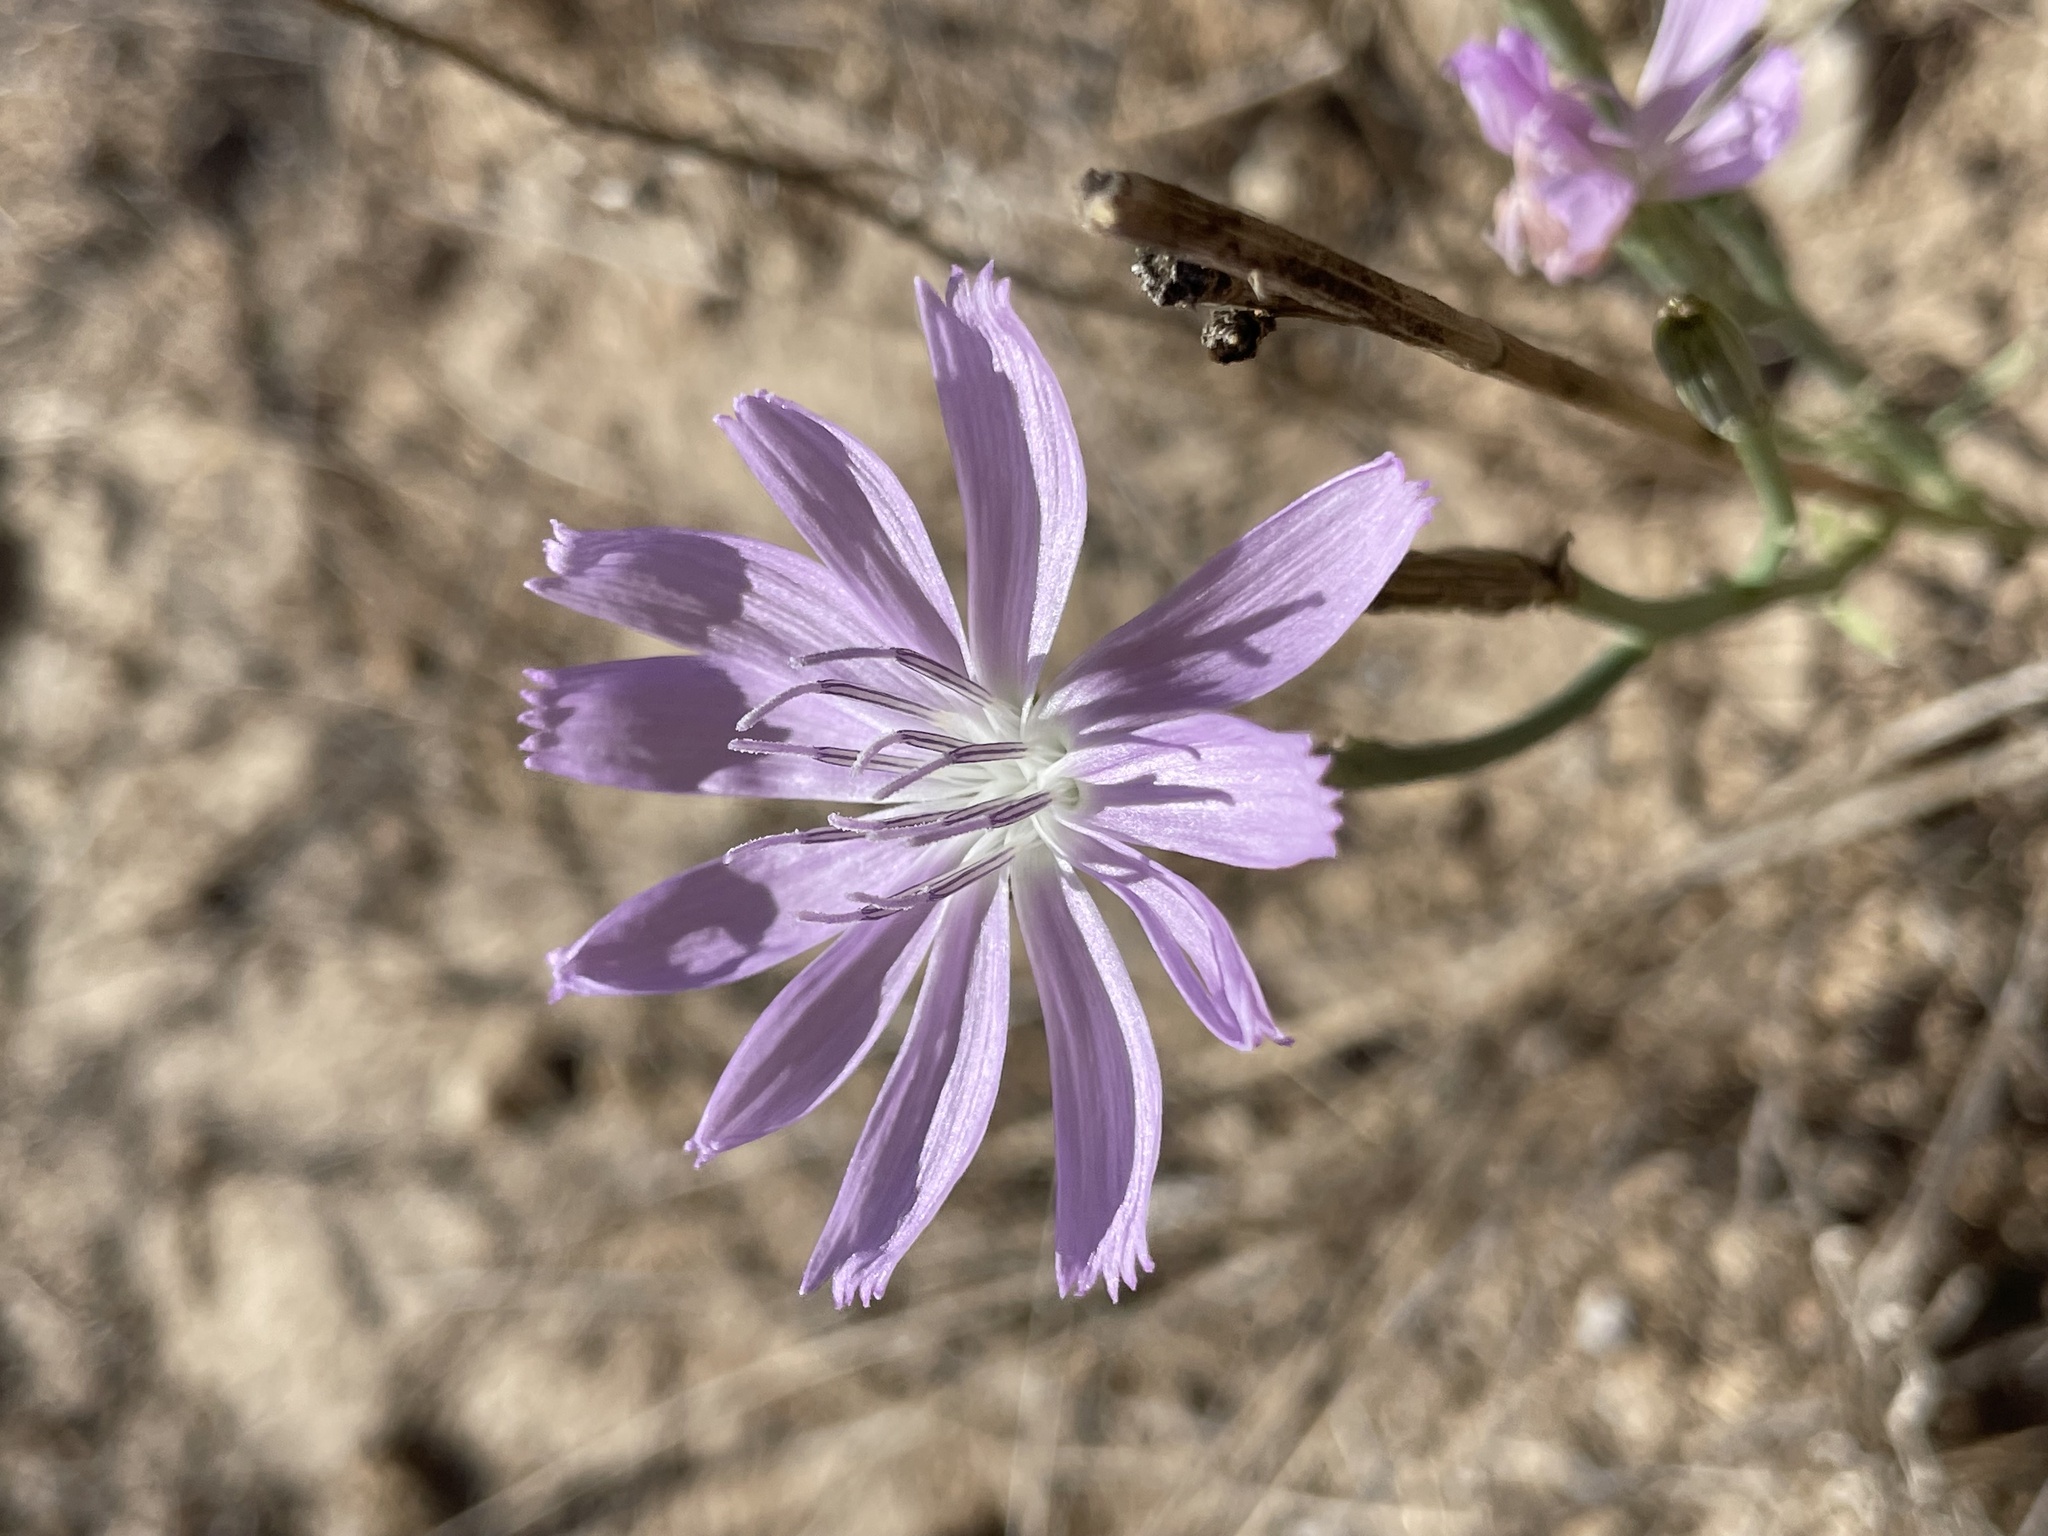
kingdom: Plantae
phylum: Tracheophyta
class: Magnoliopsida
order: Asterales
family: Asteraceae
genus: Lygodesmia
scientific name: Lygodesmia texana
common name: Texas skeleton-plant
